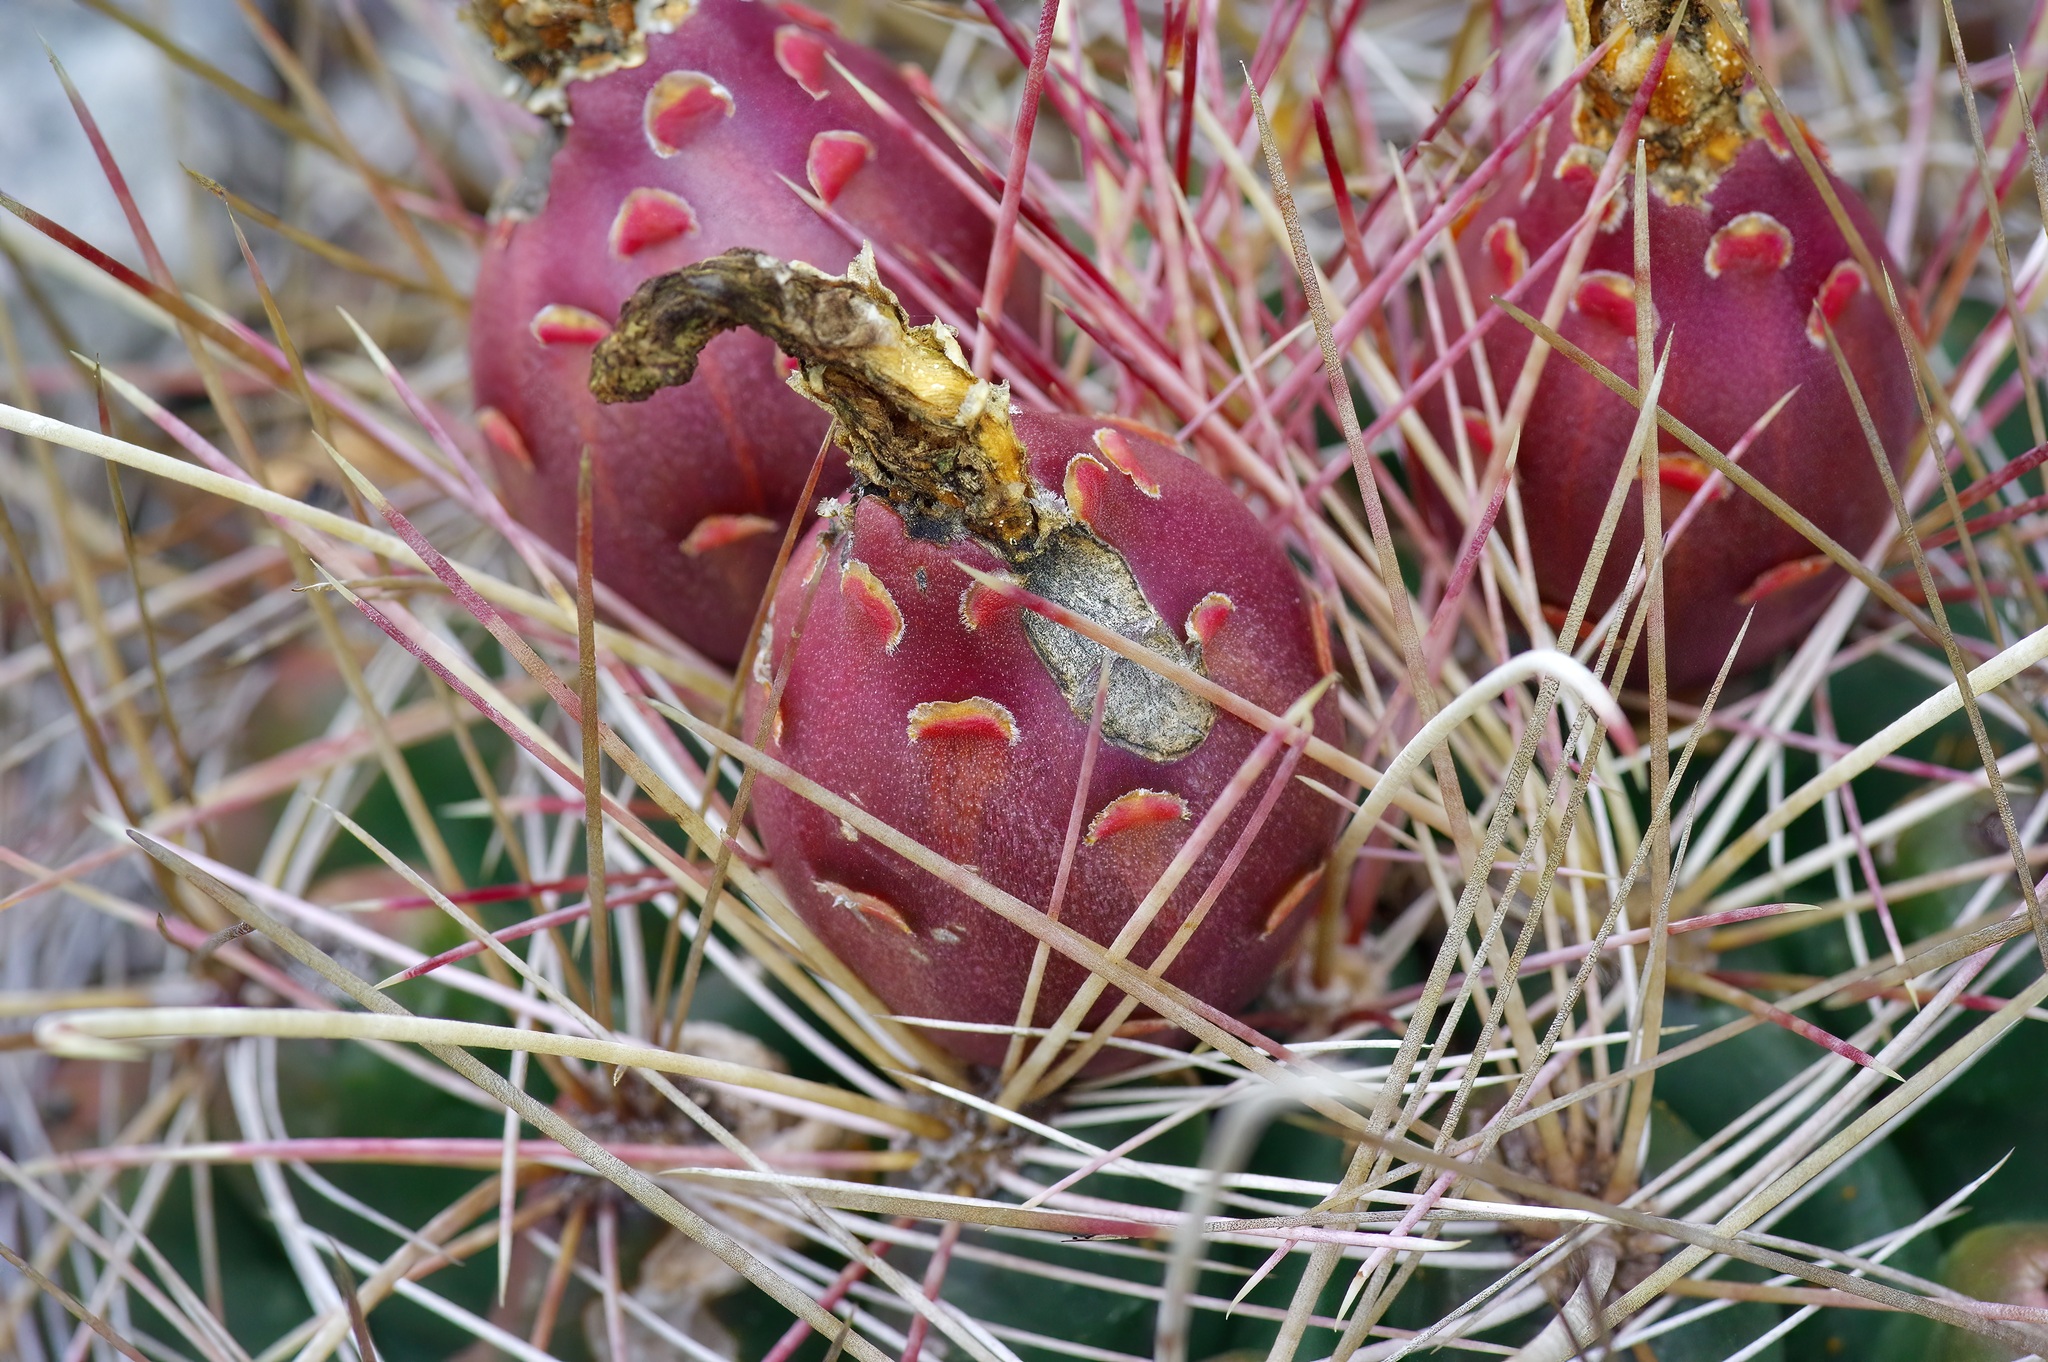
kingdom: Plantae
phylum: Tracheophyta
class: Magnoliopsida
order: Caryophyllales
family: Cactaceae
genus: Bisnaga
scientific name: Bisnaga hamatacantha
